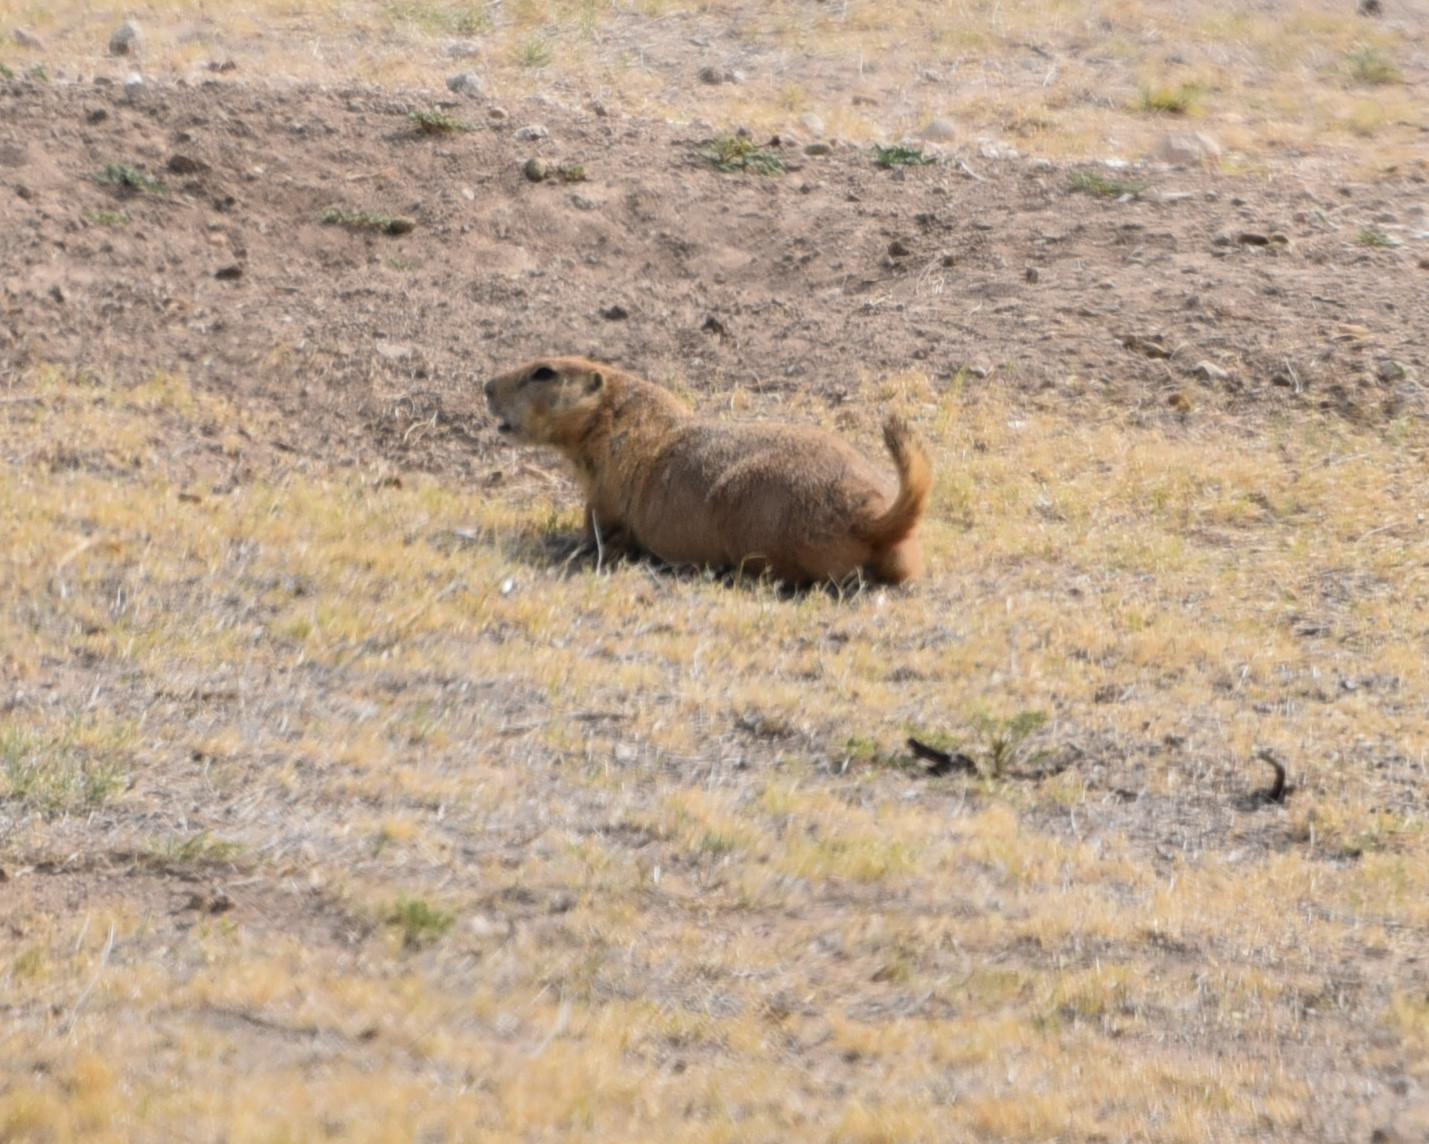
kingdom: Animalia
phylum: Chordata
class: Mammalia
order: Rodentia
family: Sciuridae
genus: Cynomys
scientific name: Cynomys ludovicianus
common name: Black-tailed prairie dog
